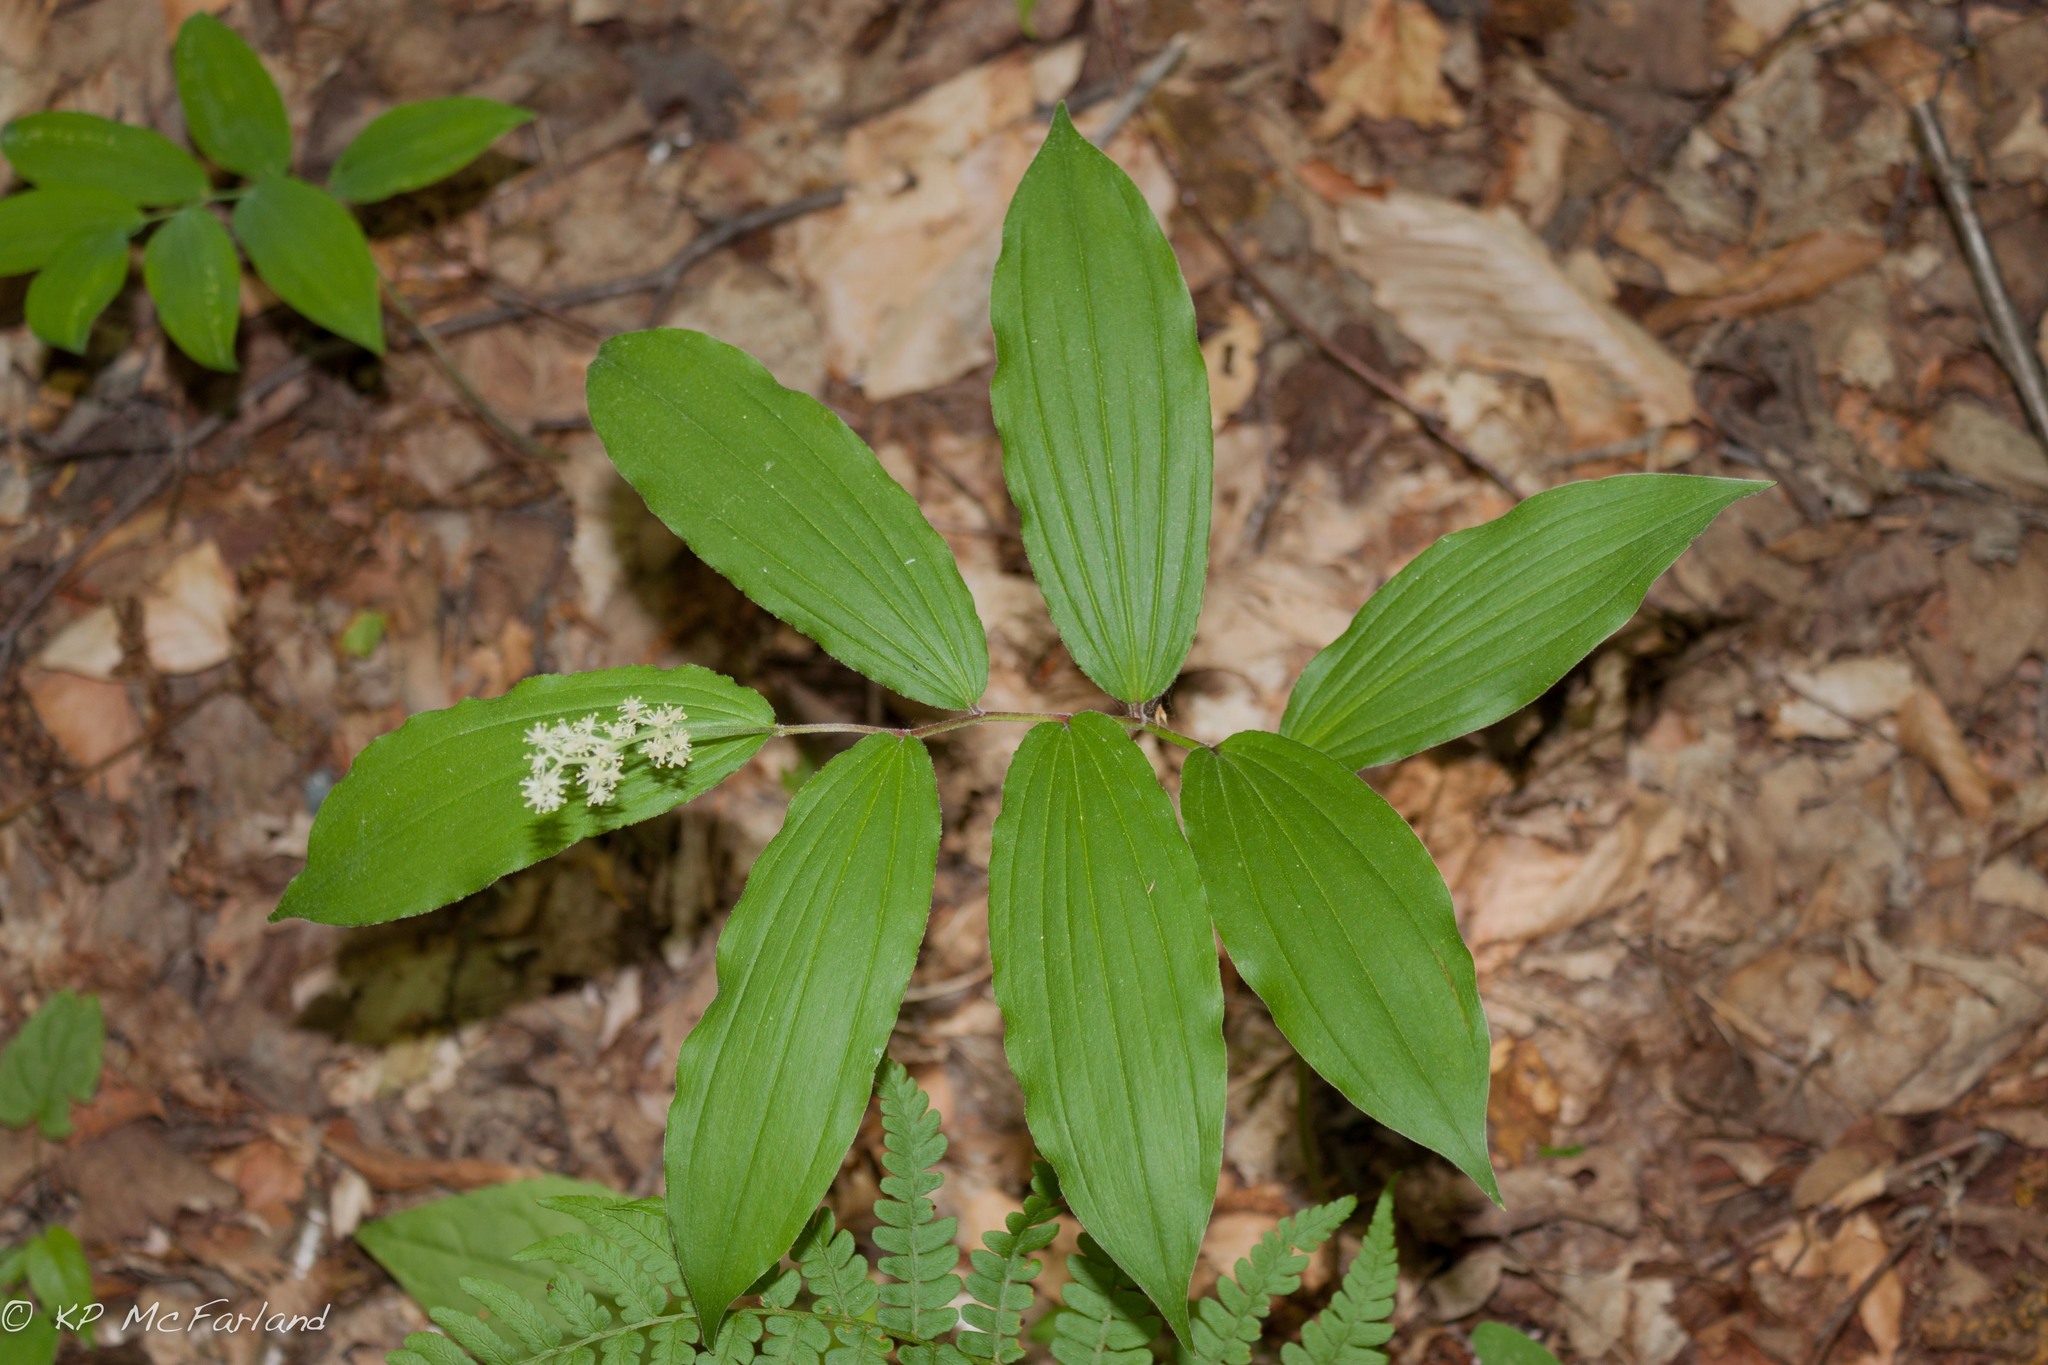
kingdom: Plantae
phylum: Tracheophyta
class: Liliopsida
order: Asparagales
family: Asparagaceae
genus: Maianthemum
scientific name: Maianthemum racemosum
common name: False spikenard
